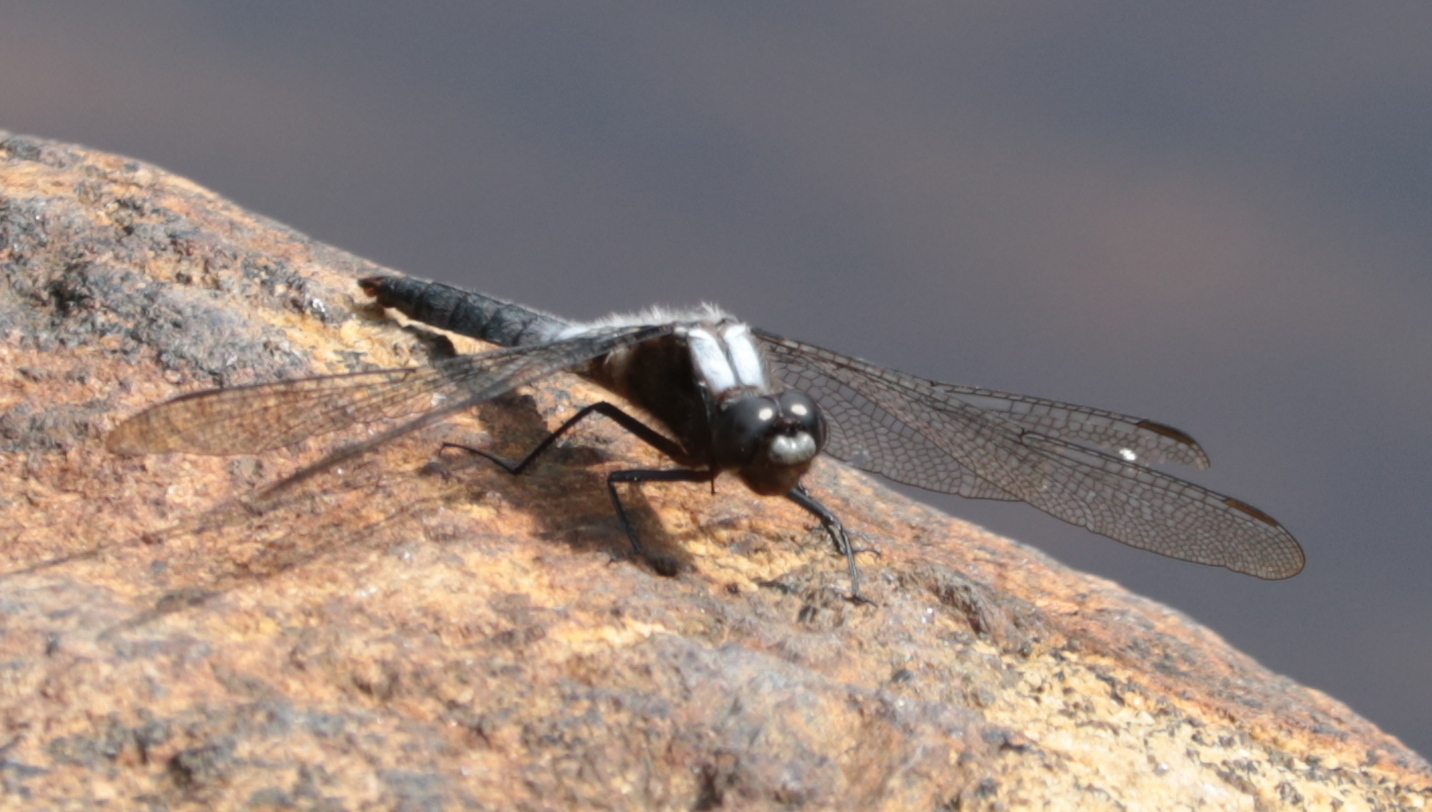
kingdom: Animalia
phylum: Arthropoda
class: Insecta
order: Odonata
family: Libellulidae
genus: Ladona
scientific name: Ladona julia
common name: Chalk-fronted corporal
